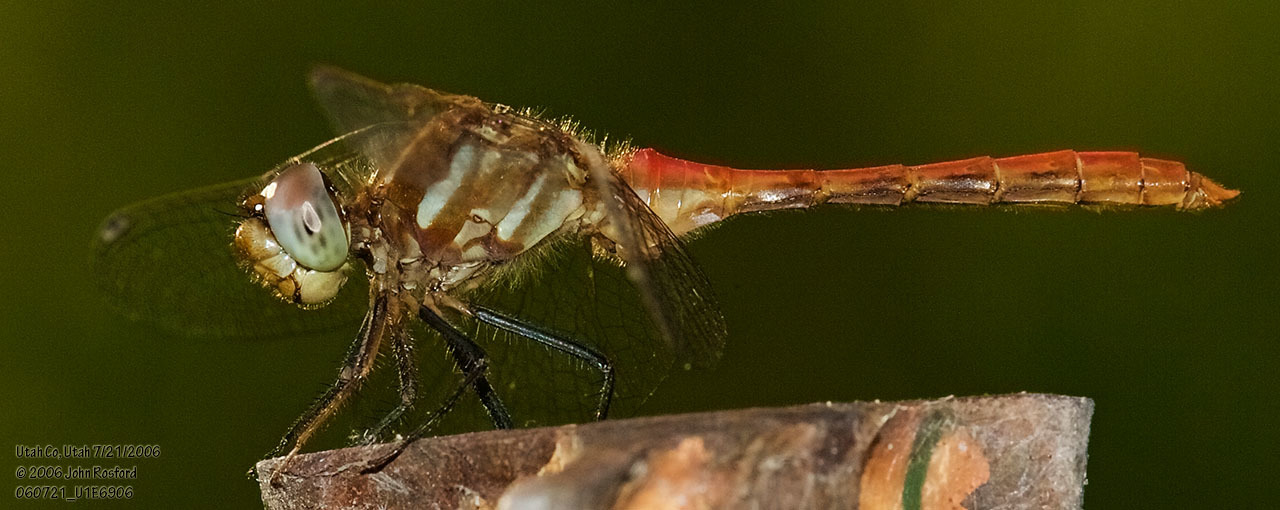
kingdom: Animalia
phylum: Arthropoda
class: Insecta
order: Odonata
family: Libellulidae
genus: Sympetrum
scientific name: Sympetrum pallipes
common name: Striped meadowhawk
